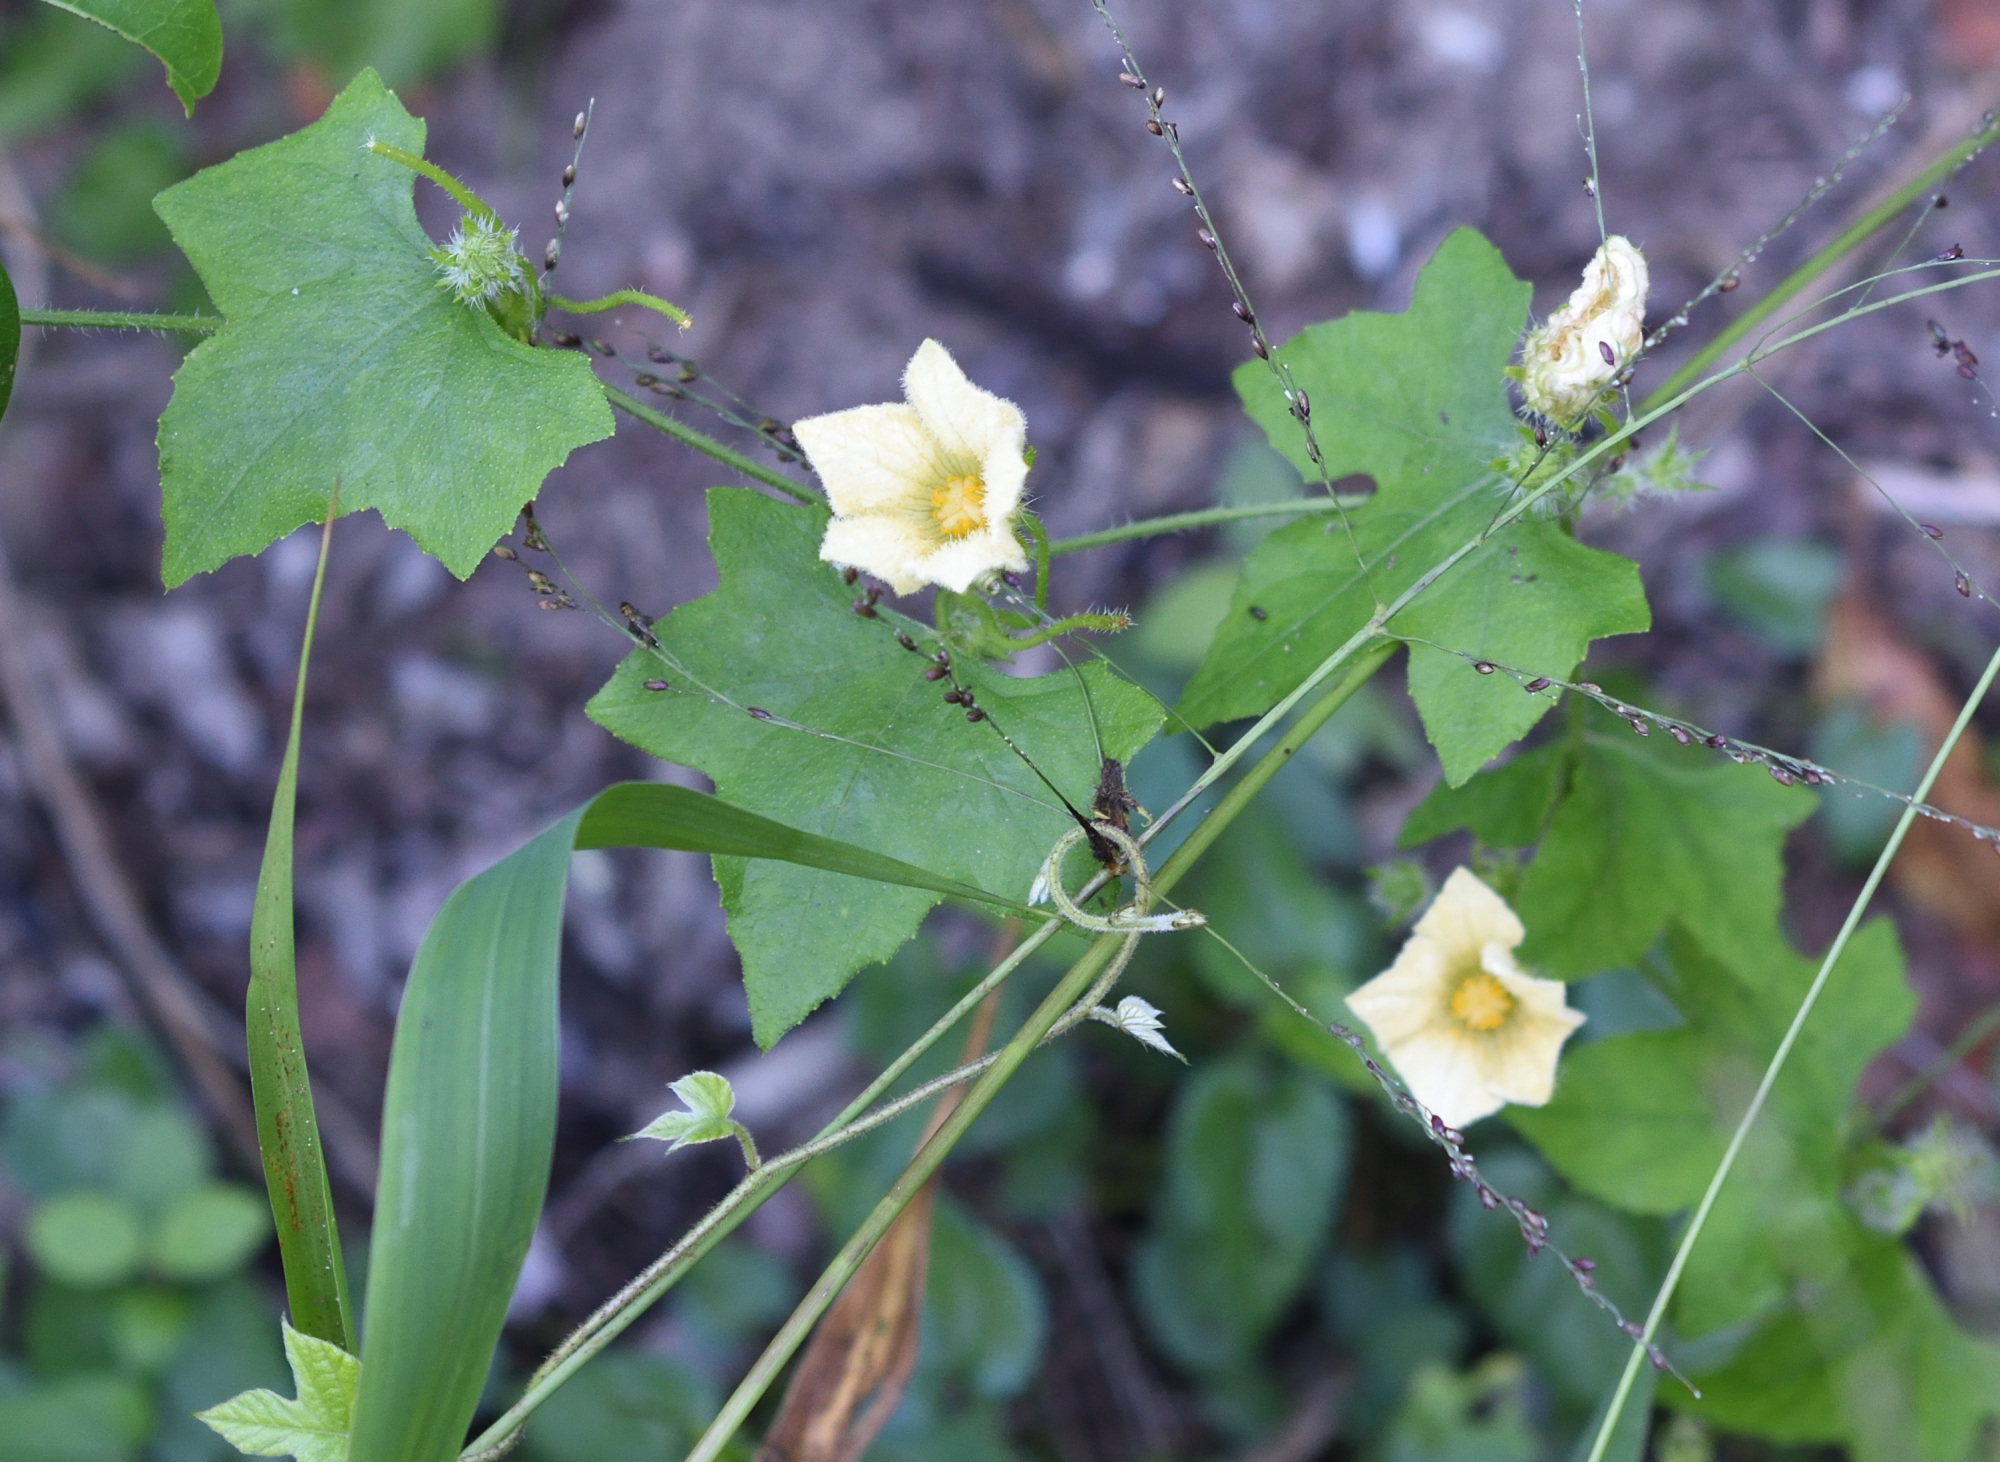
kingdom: Plantae
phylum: Tracheophyta
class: Magnoliopsida
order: Cucurbitales
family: Cucurbitaceae
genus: Coccinia
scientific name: Coccinia rehmannii
